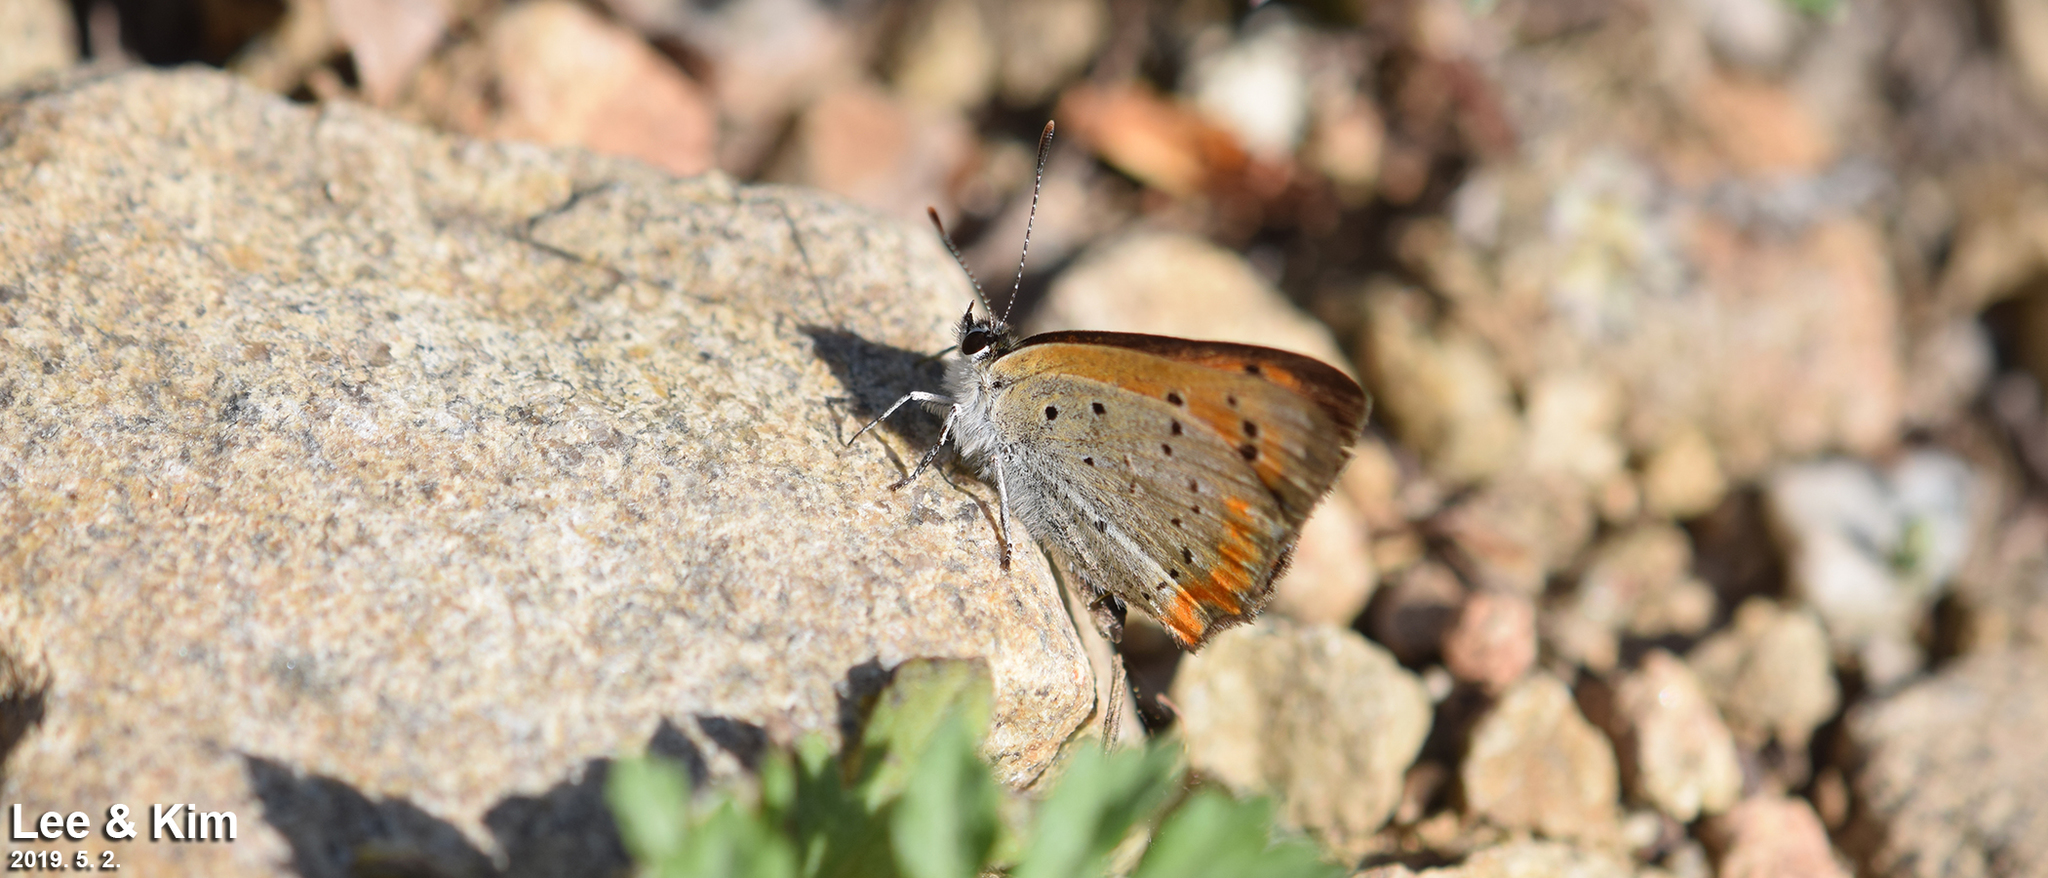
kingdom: Animalia
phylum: Arthropoda
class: Insecta
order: Lepidoptera
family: Lycaenidae
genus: Lycaena
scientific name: Lycaena phlaeas
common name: Small copper
